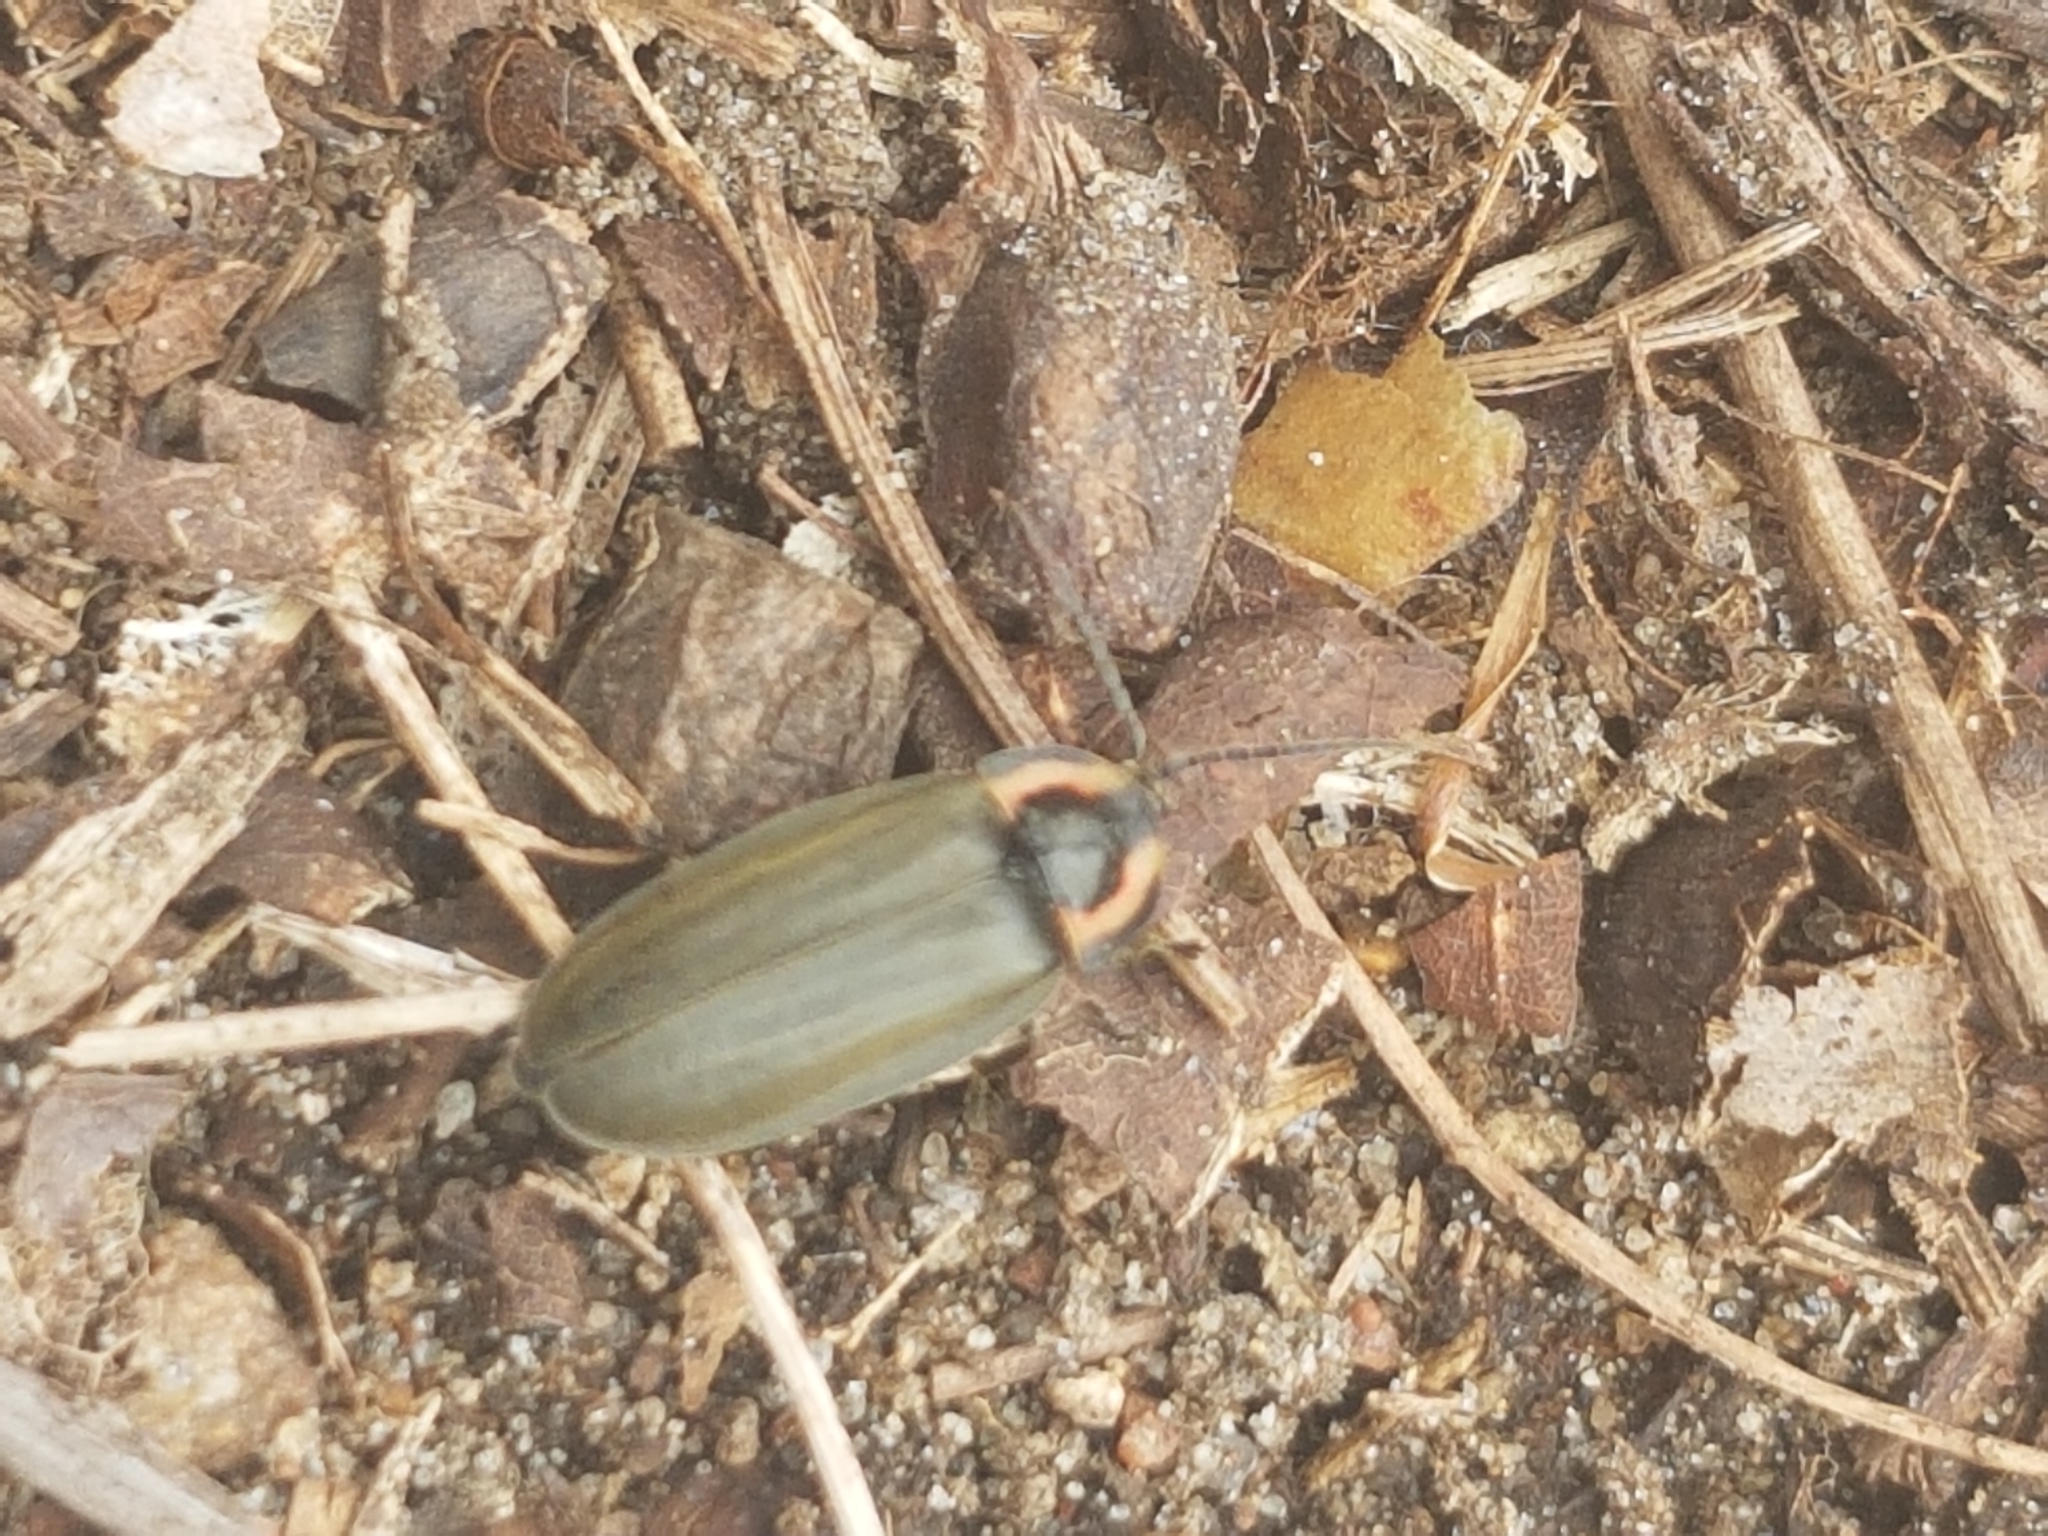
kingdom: Animalia
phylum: Arthropoda
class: Insecta
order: Coleoptera
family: Lampyridae
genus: Photinus
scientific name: Photinus corrusca
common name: Winter firefly
